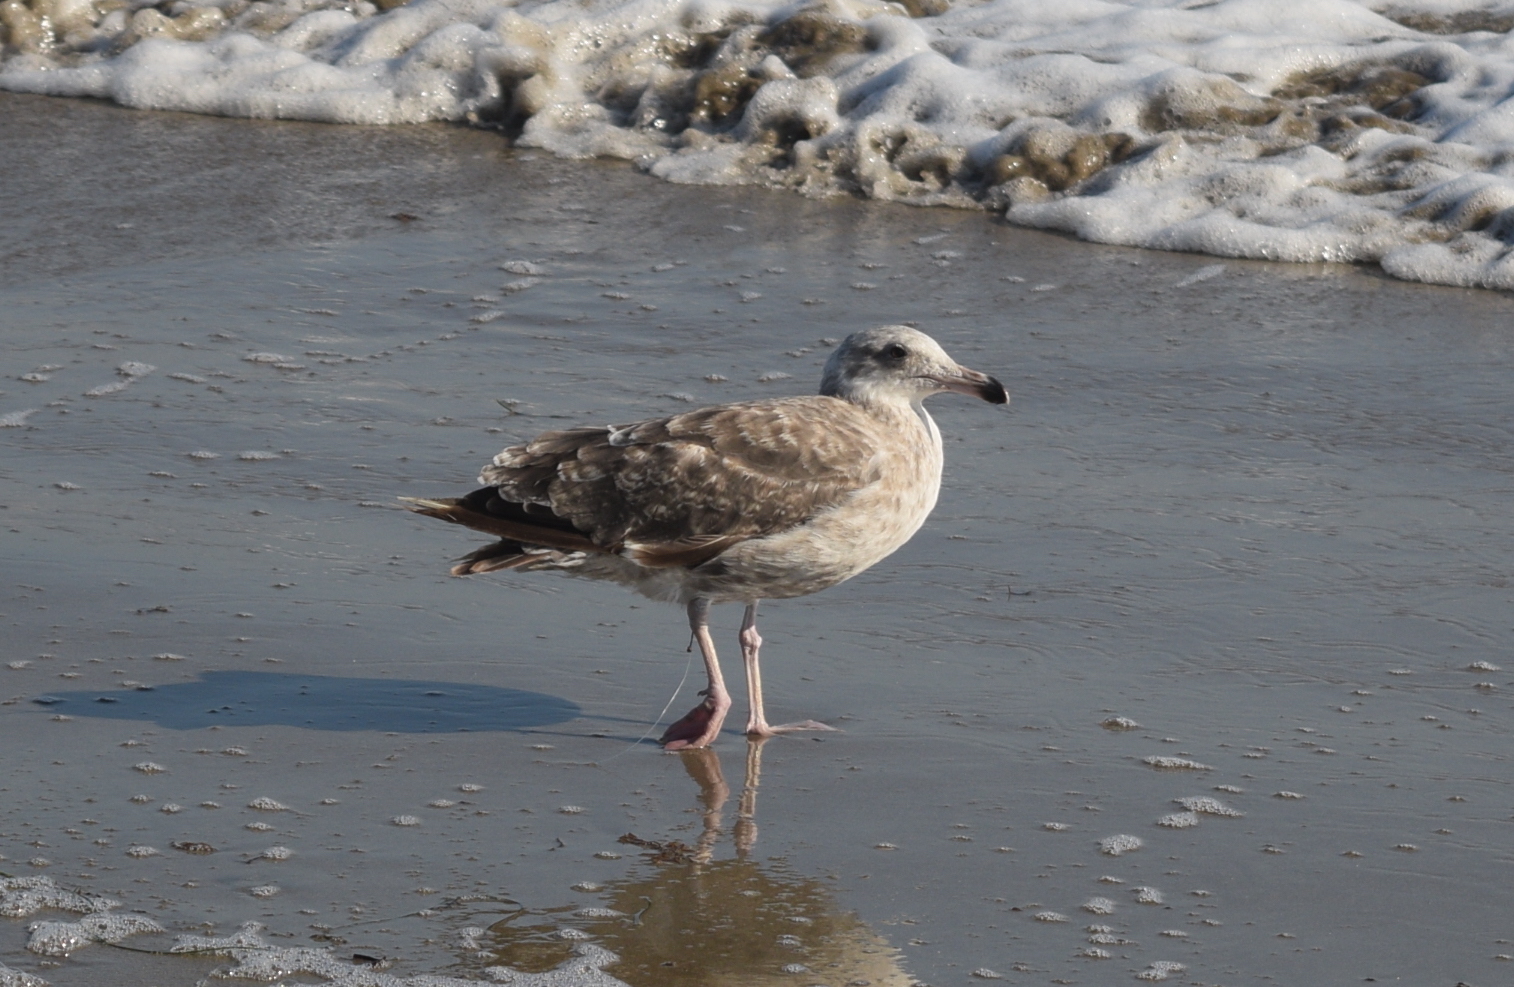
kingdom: Animalia
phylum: Chordata
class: Aves
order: Charadriiformes
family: Laridae
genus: Larus
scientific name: Larus occidentalis
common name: Western gull
